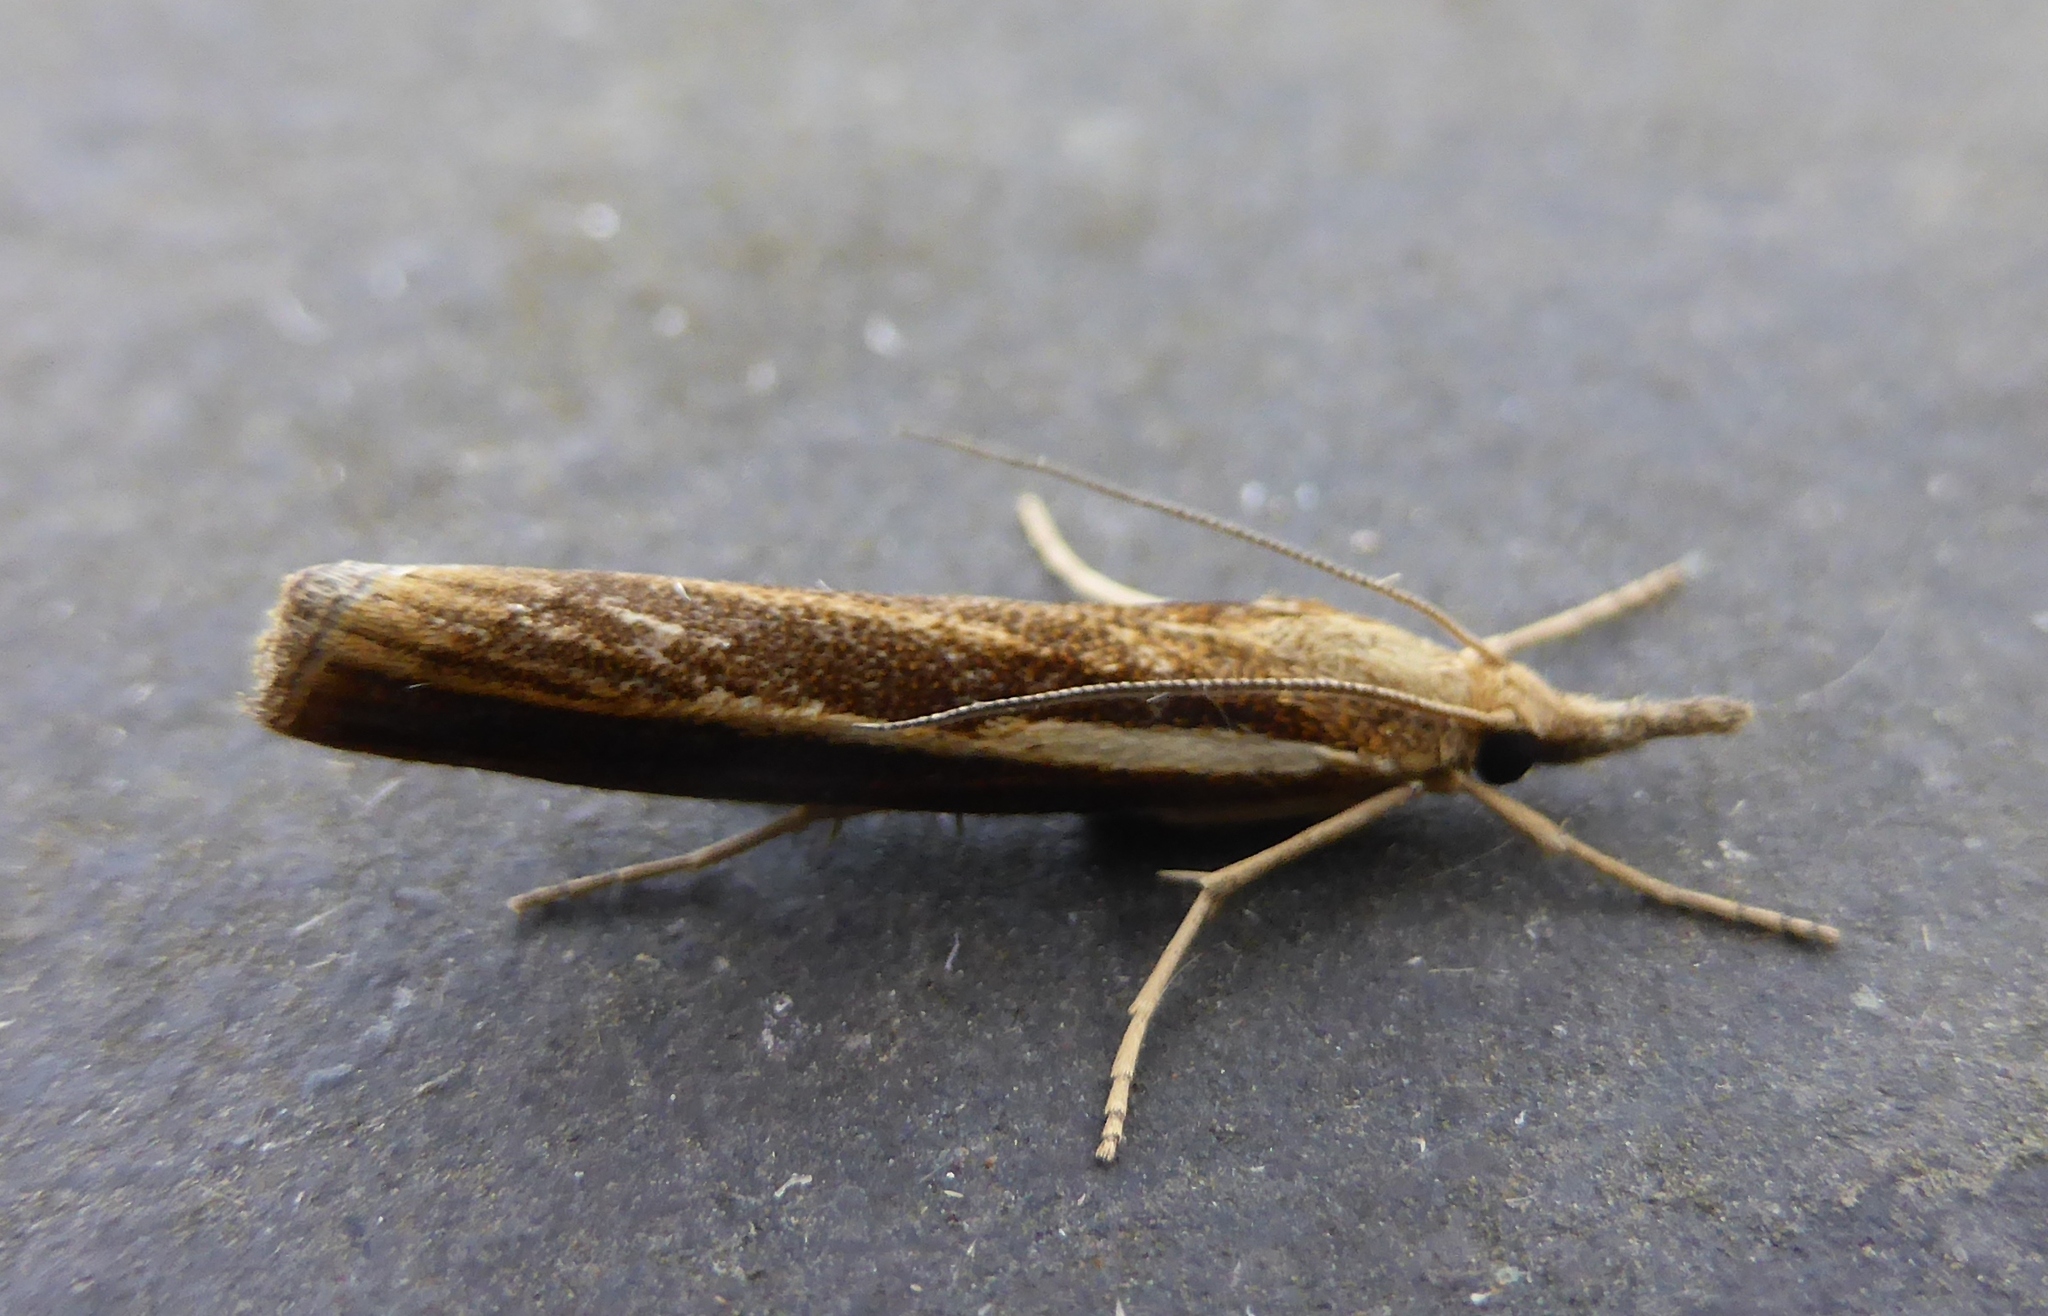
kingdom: Animalia
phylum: Arthropoda
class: Insecta
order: Lepidoptera
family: Crambidae
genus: Agriphila
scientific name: Agriphila tristellus
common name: Common grass-veneer
